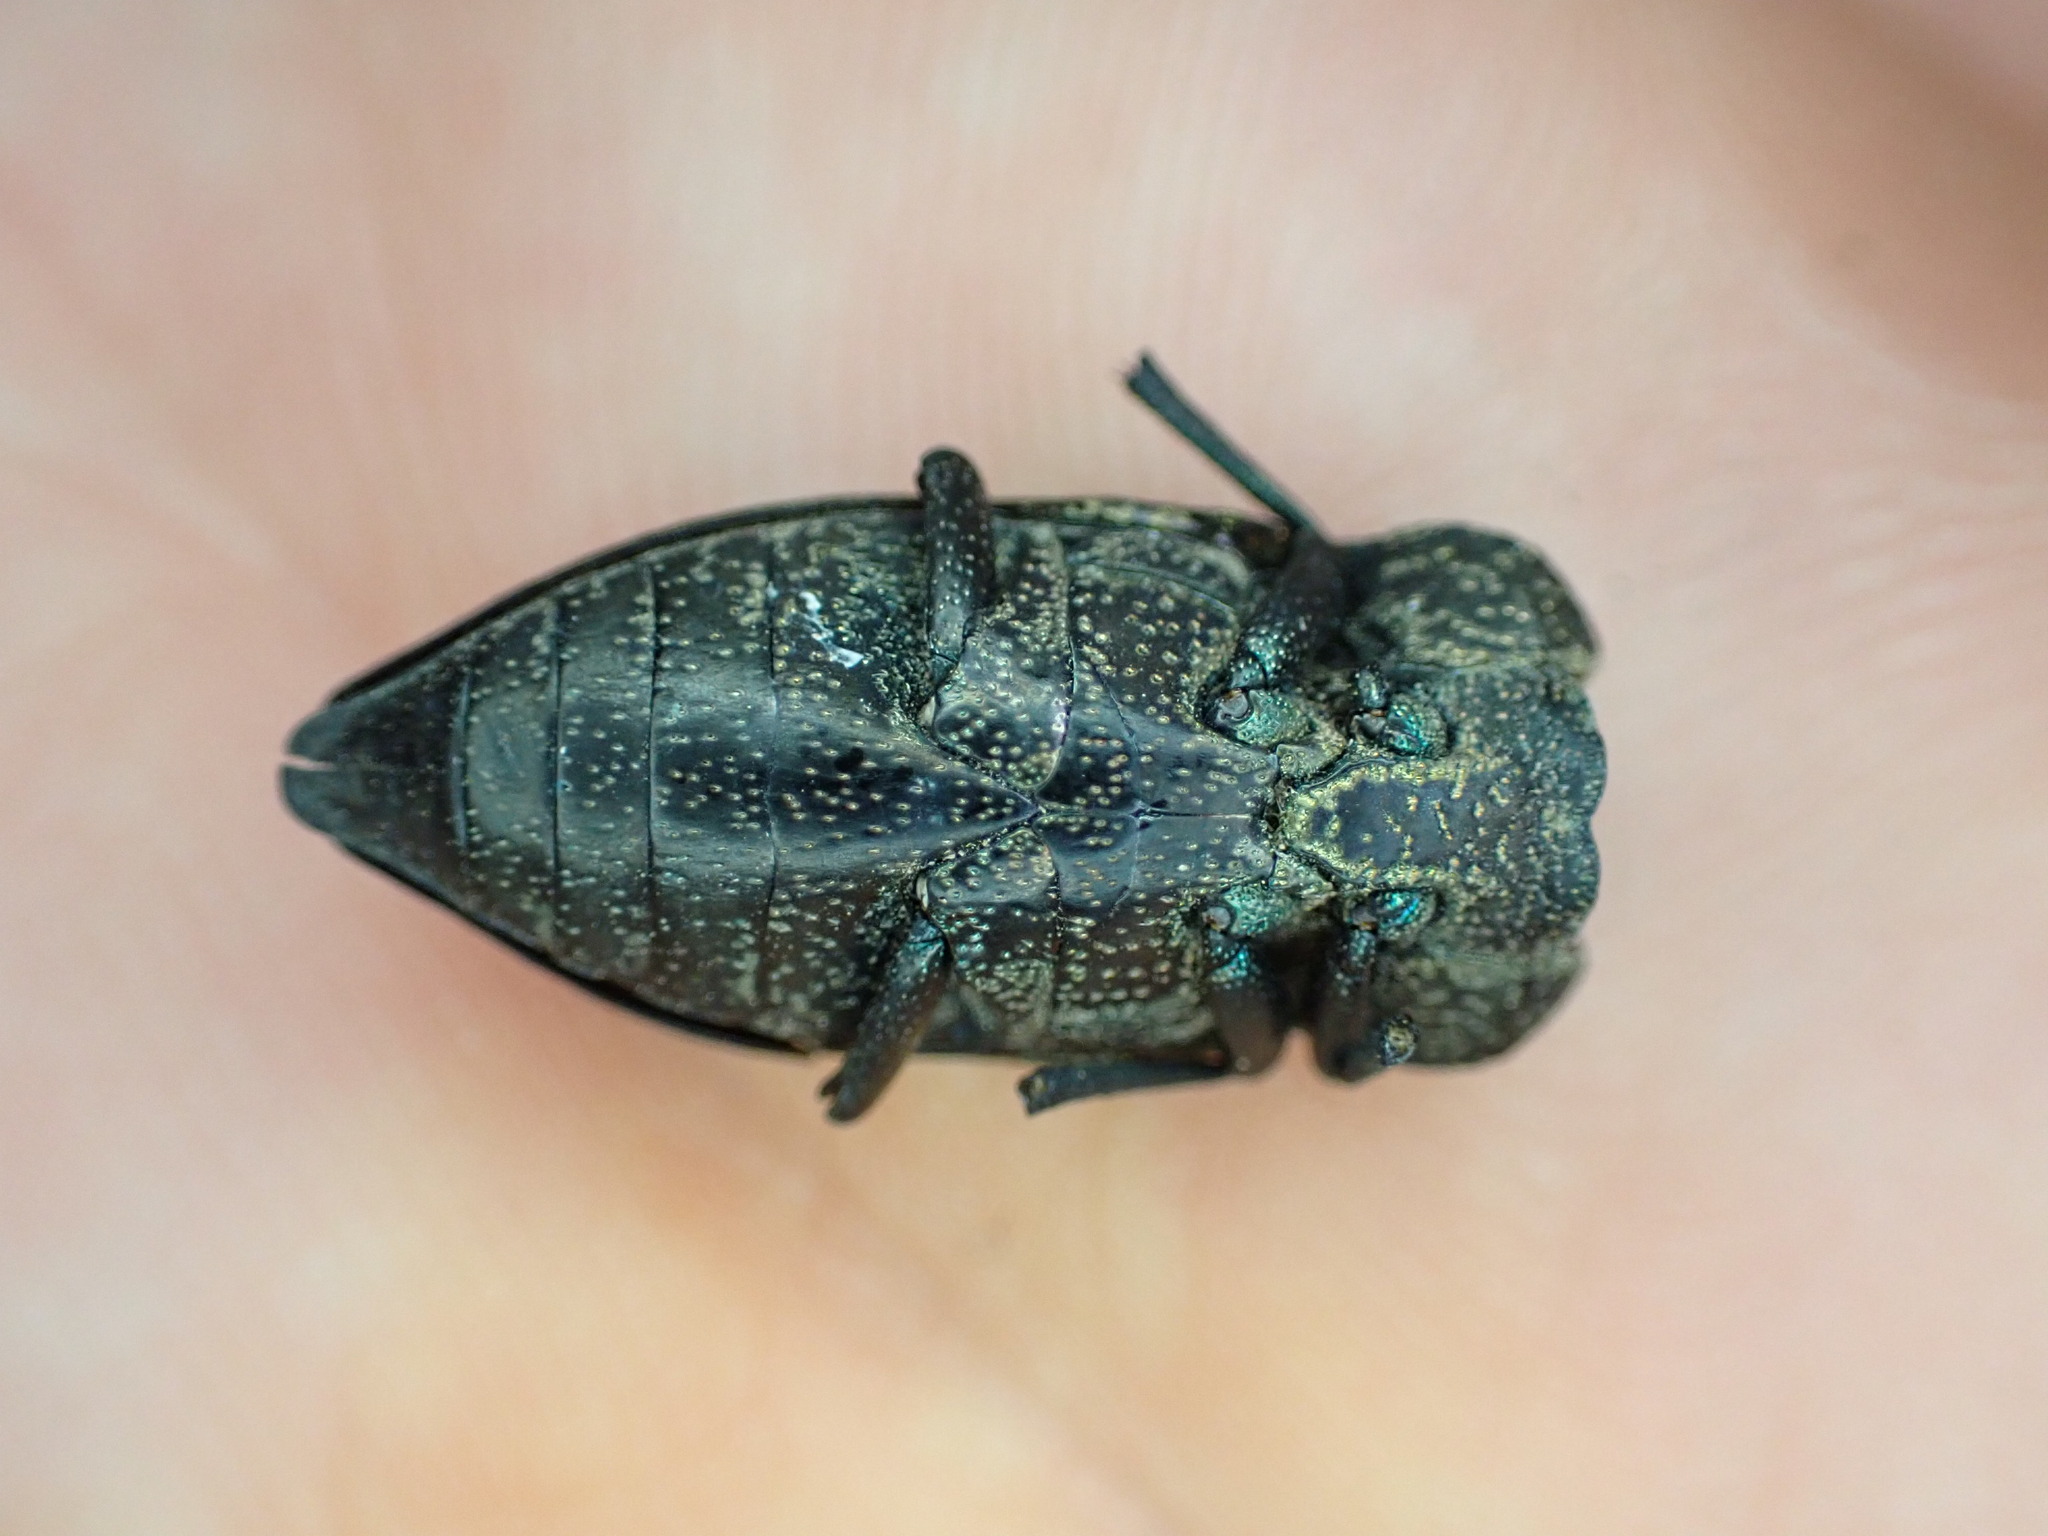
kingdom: Animalia
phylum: Arthropoda
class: Insecta
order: Coleoptera
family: Buprestidae
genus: Capnodis
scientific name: Capnodis tenebricosa
